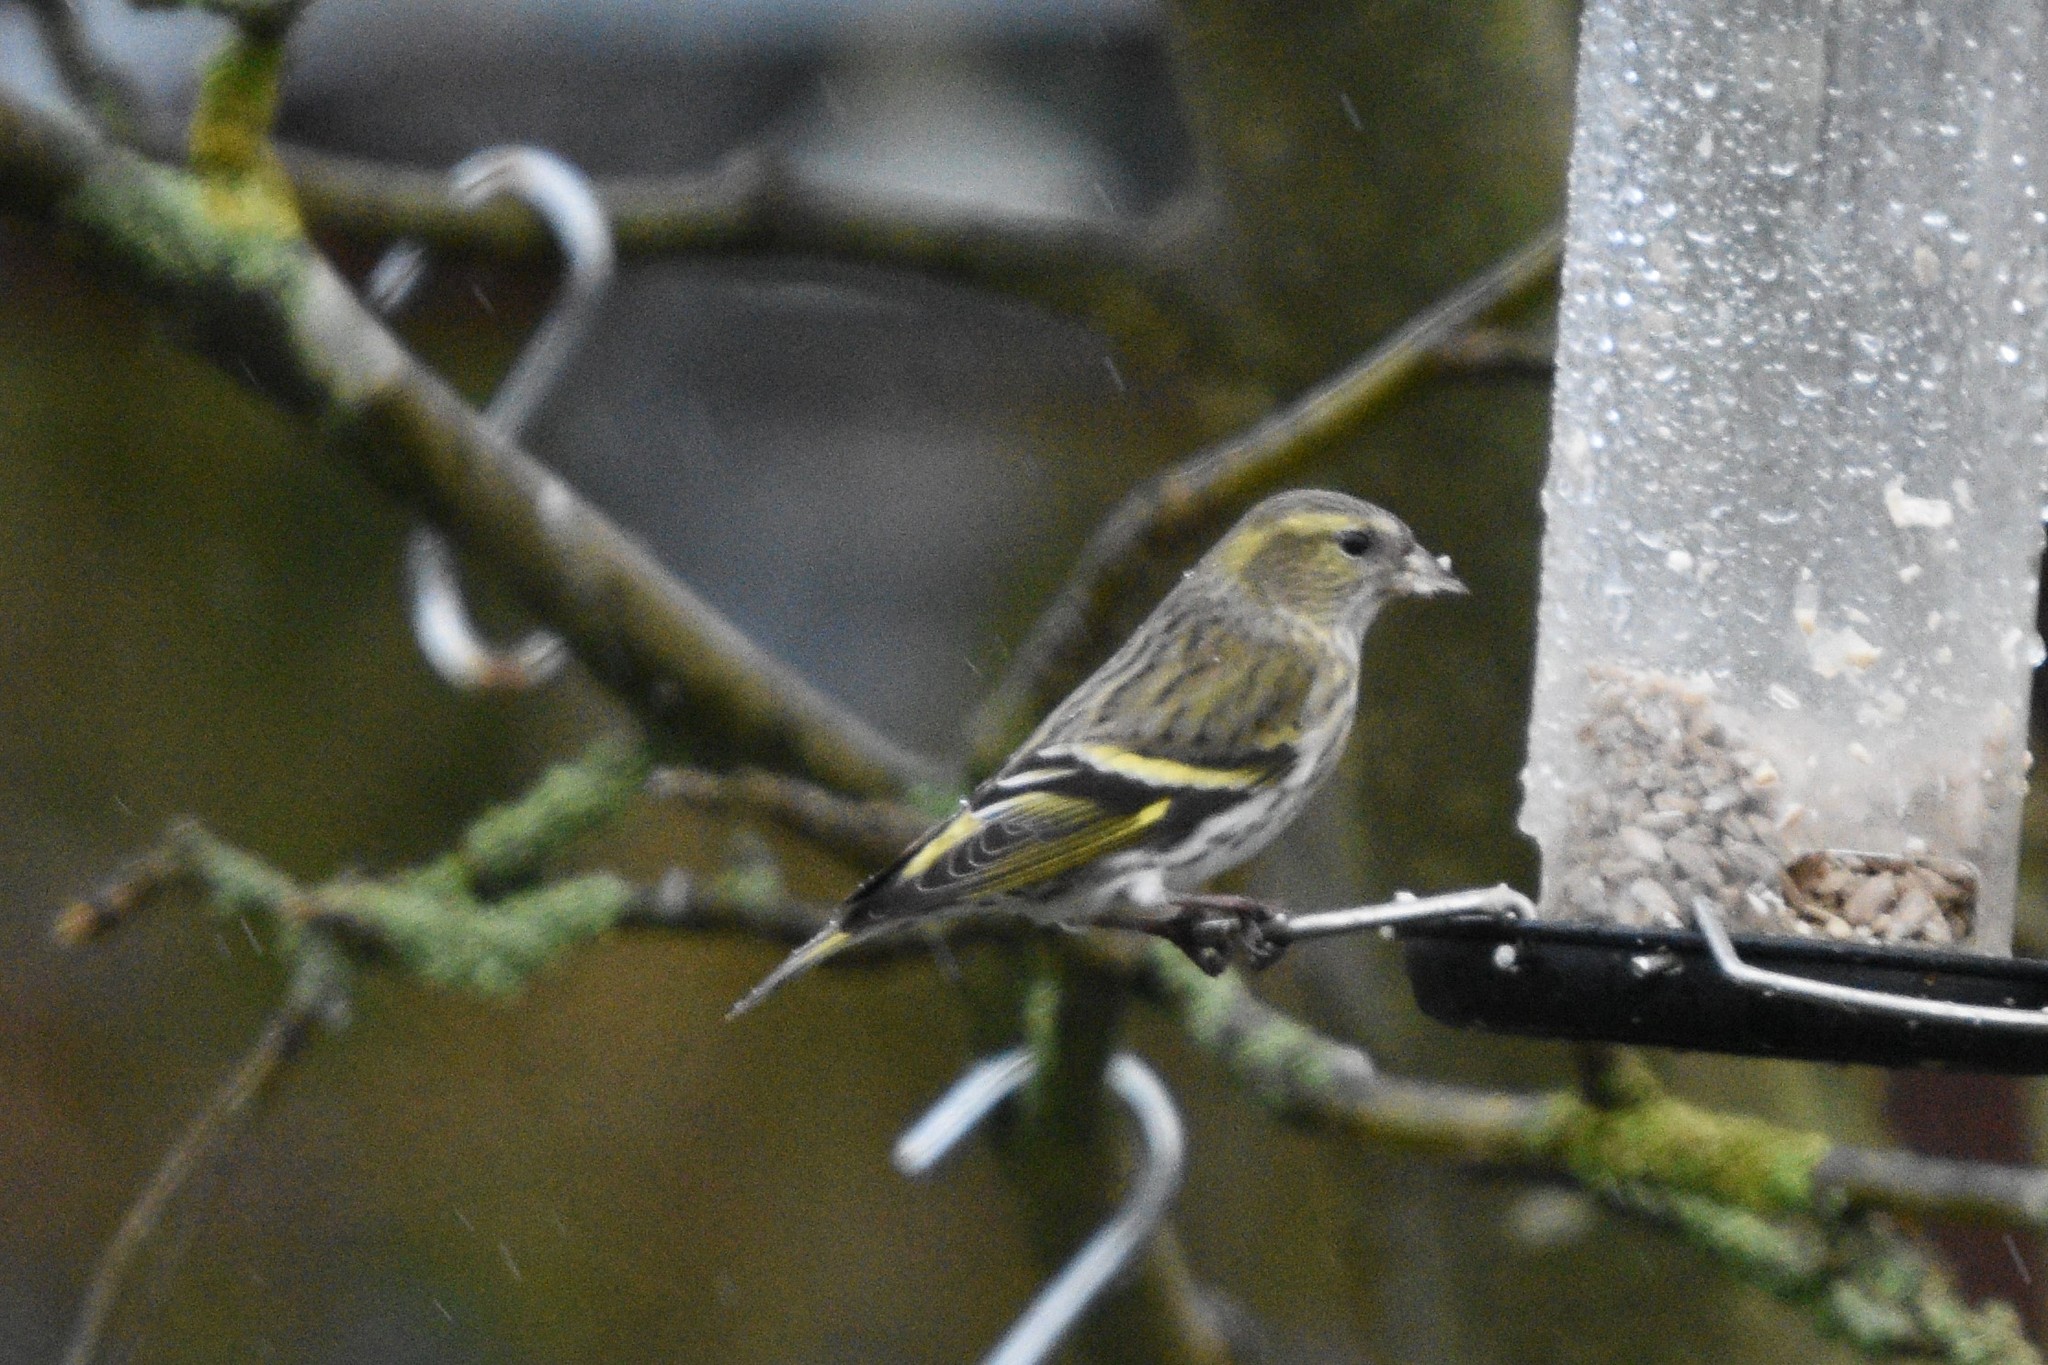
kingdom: Animalia
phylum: Chordata
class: Aves
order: Passeriformes
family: Fringillidae
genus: Spinus
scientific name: Spinus spinus
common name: Eurasian siskin
